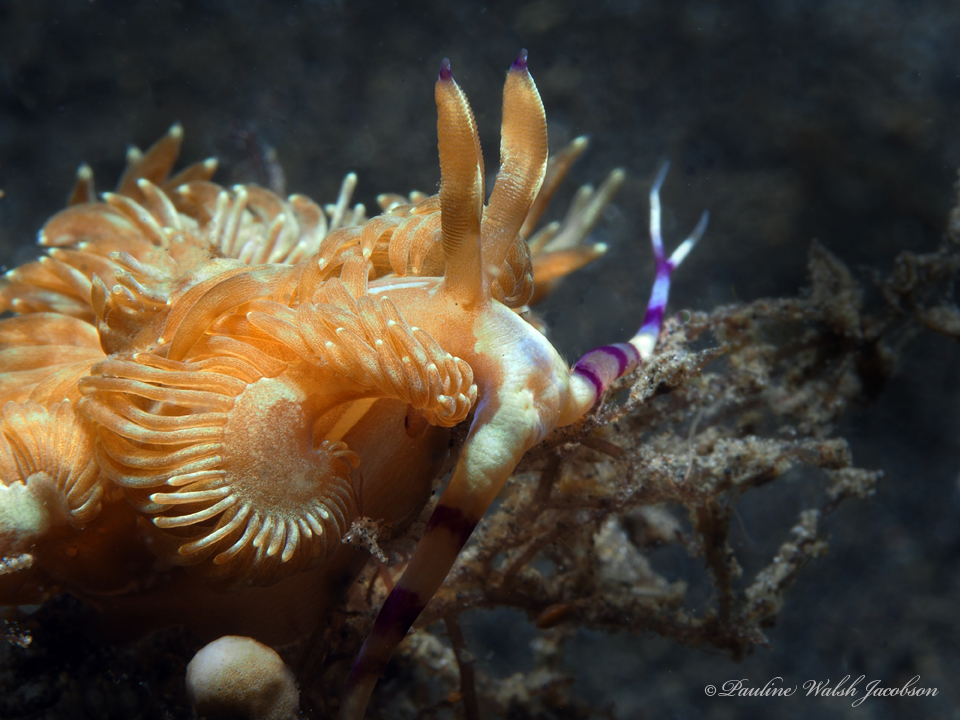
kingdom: Animalia
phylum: Mollusca
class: Gastropoda
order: Nudibranchia
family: Facelinidae
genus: Pteraeolidia
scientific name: Pteraeolidia semperi
